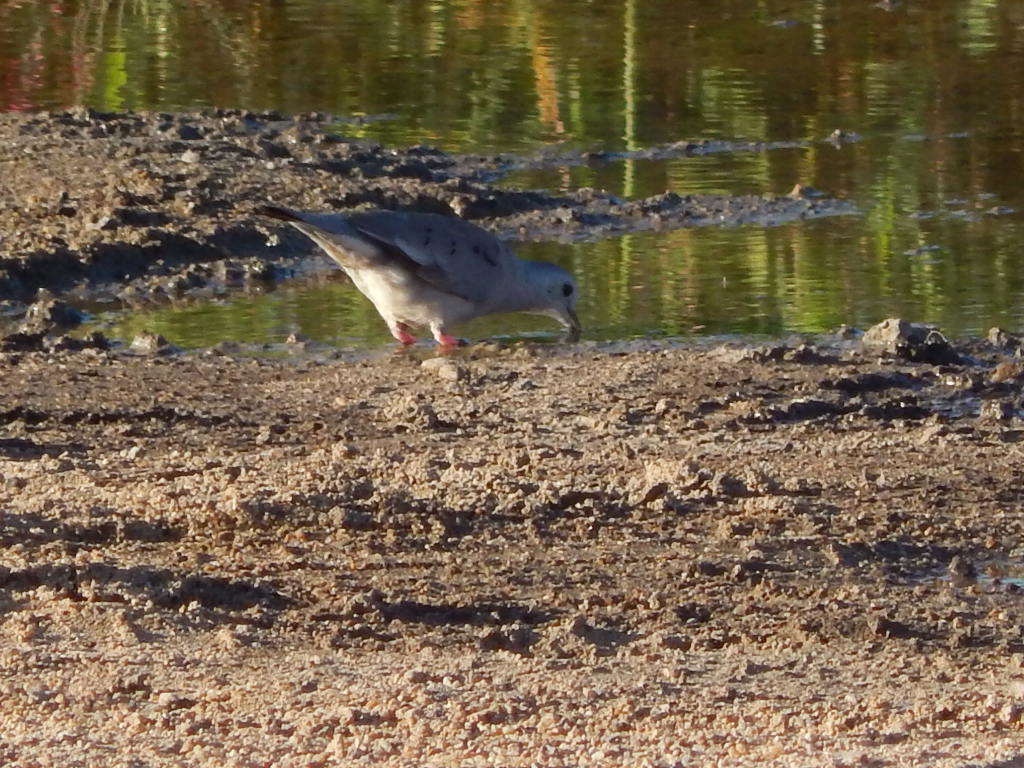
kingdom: Animalia
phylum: Chordata
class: Aves
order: Columbiformes
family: Columbidae
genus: Columbina
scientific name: Columbina minuta
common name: Plain-breasted ground dove
